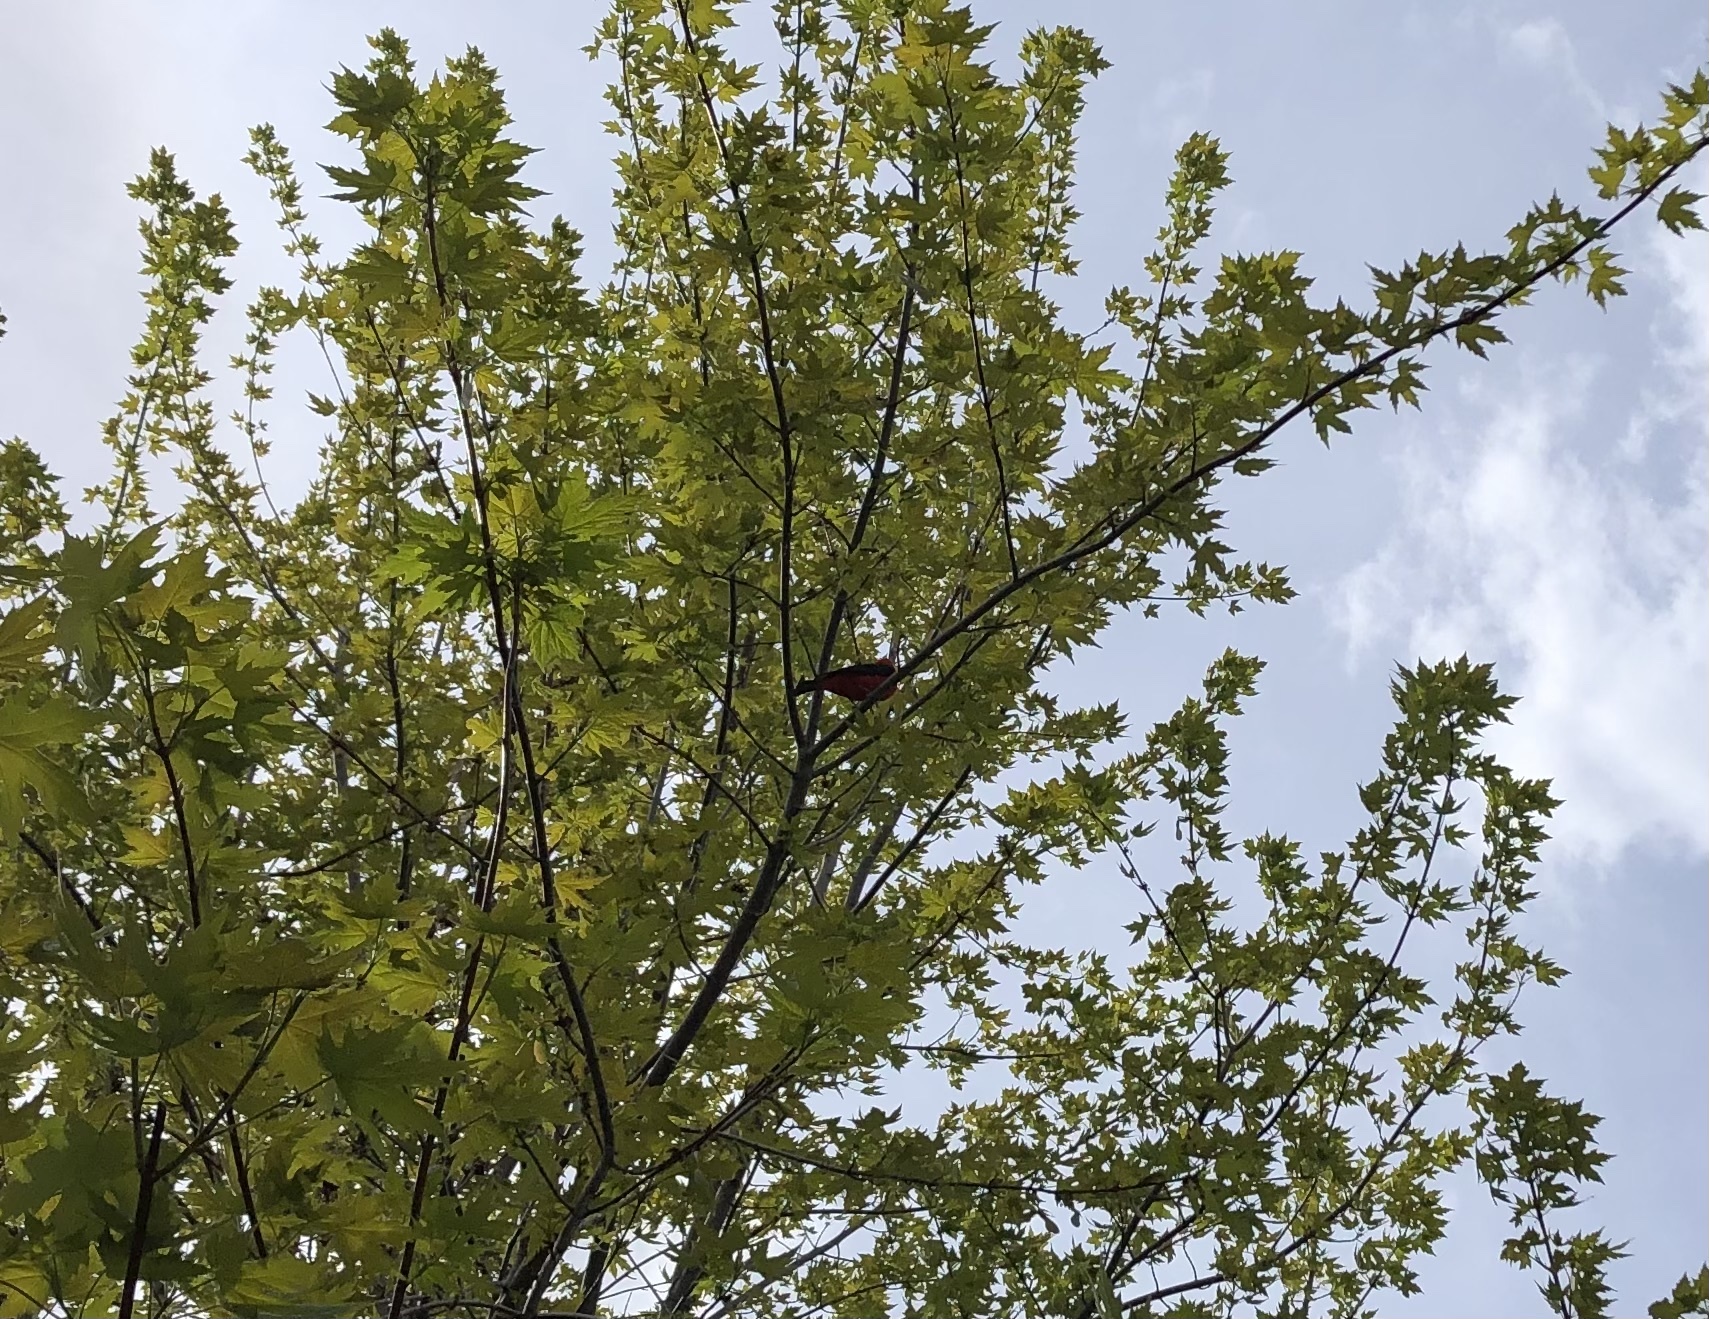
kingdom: Animalia
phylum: Chordata
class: Aves
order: Passeriformes
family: Cardinalidae
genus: Piranga
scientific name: Piranga olivacea
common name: Scarlet tanager
